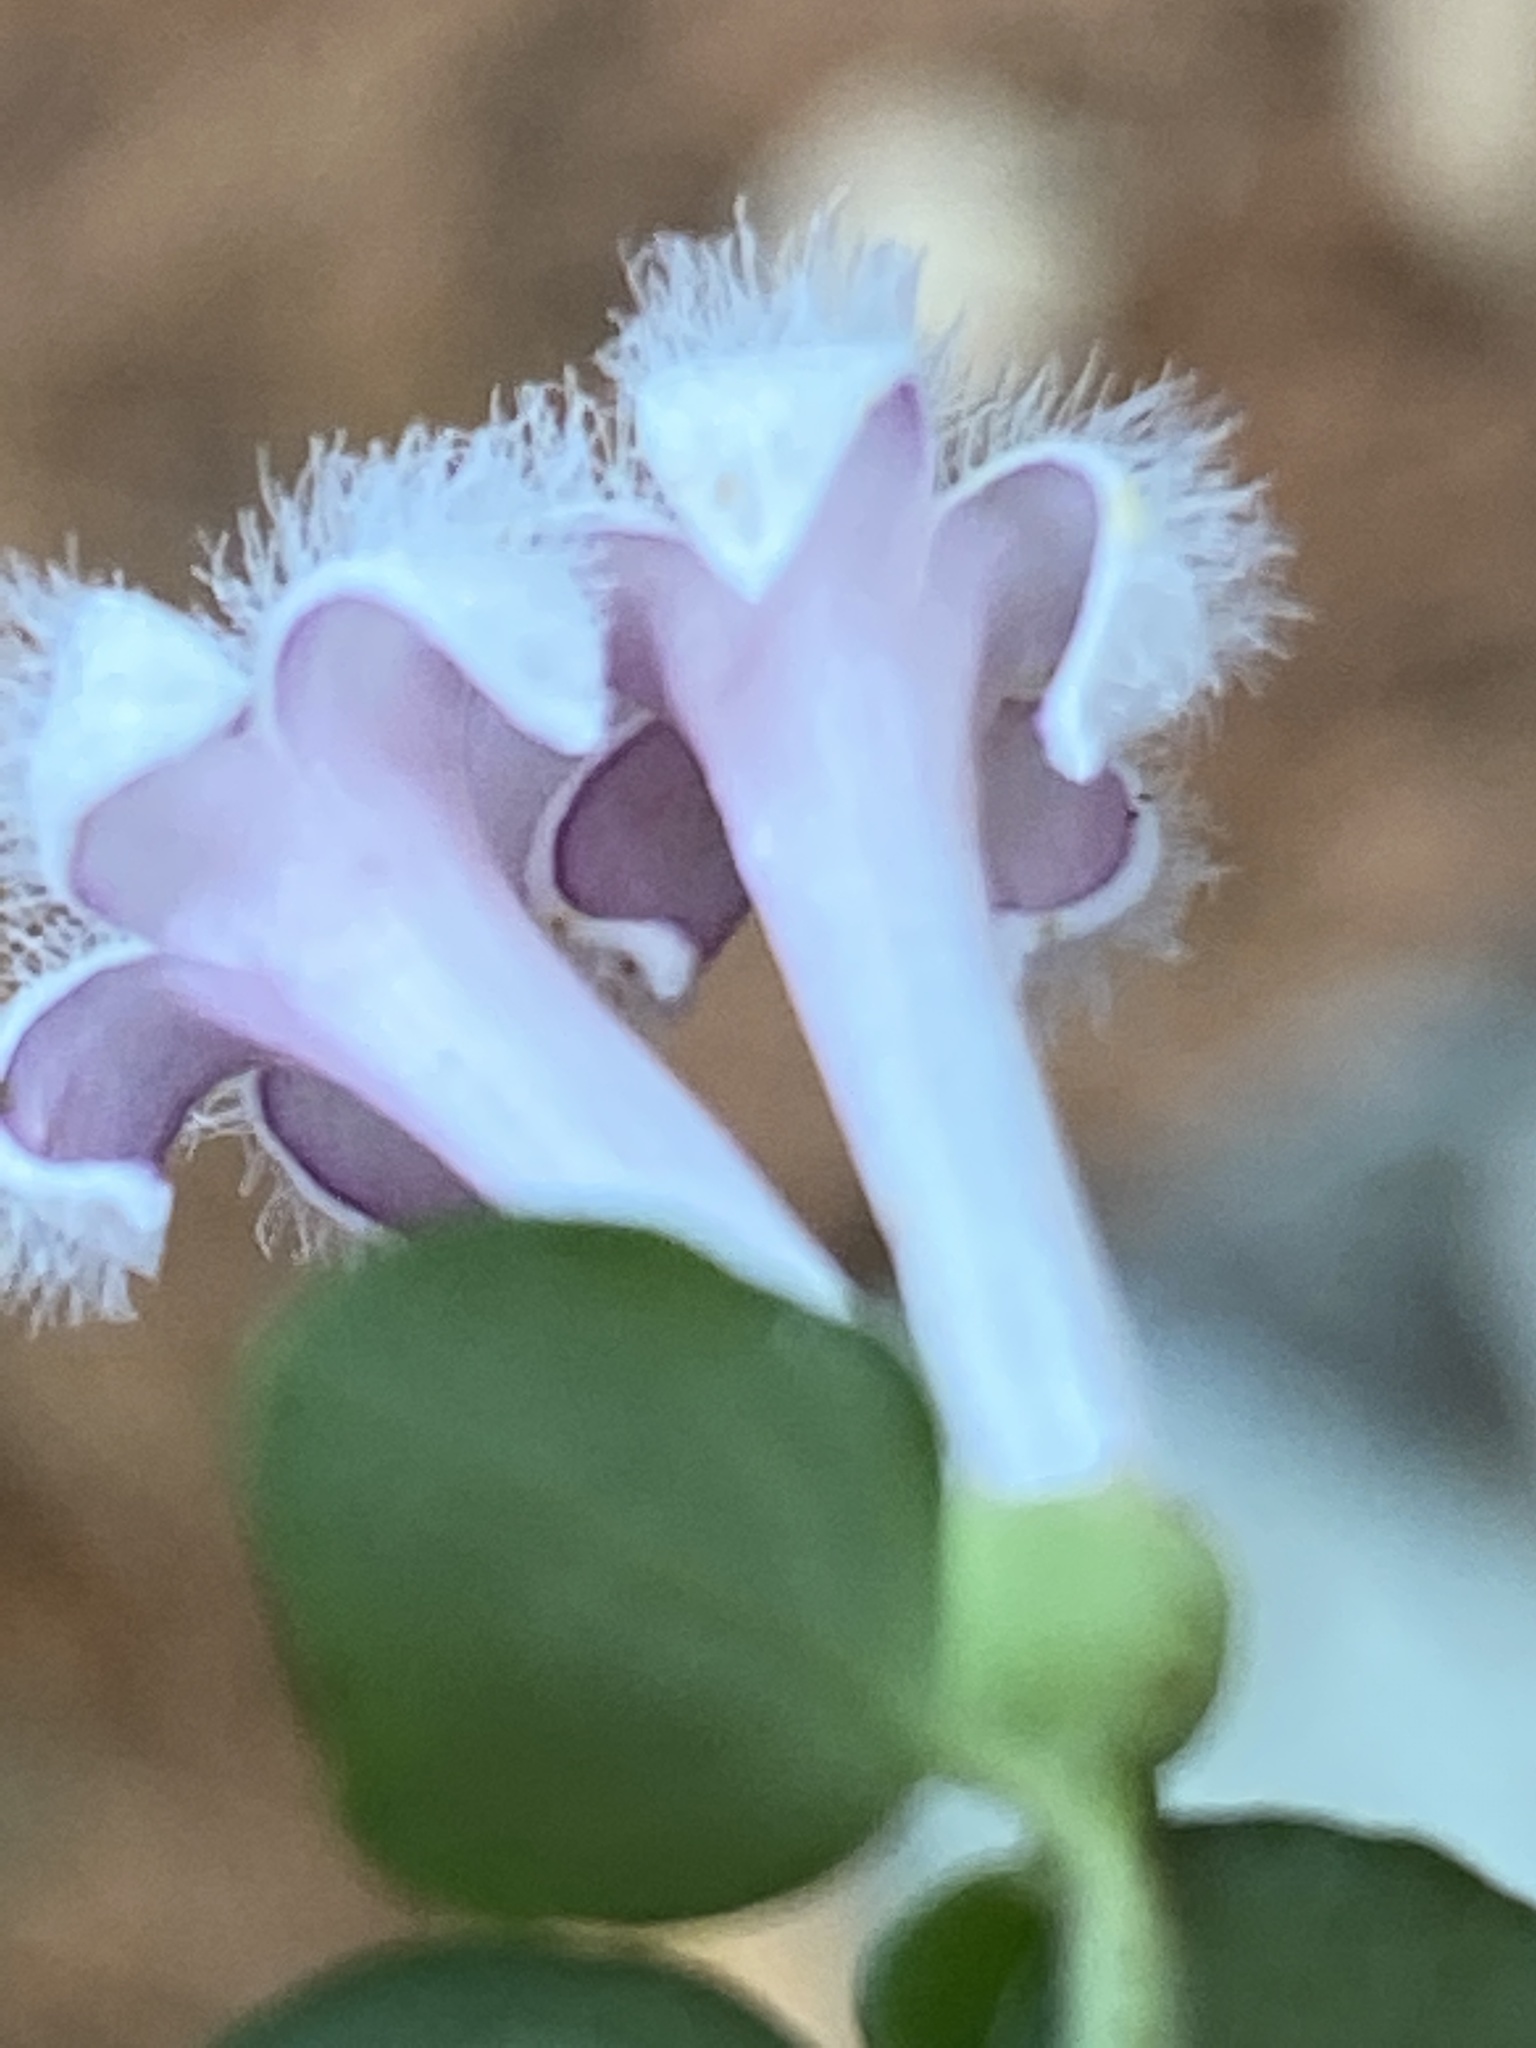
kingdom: Plantae
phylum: Tracheophyta
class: Magnoliopsida
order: Gentianales
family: Rubiaceae
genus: Mitchella
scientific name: Mitchella repens
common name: Partridge-berry
